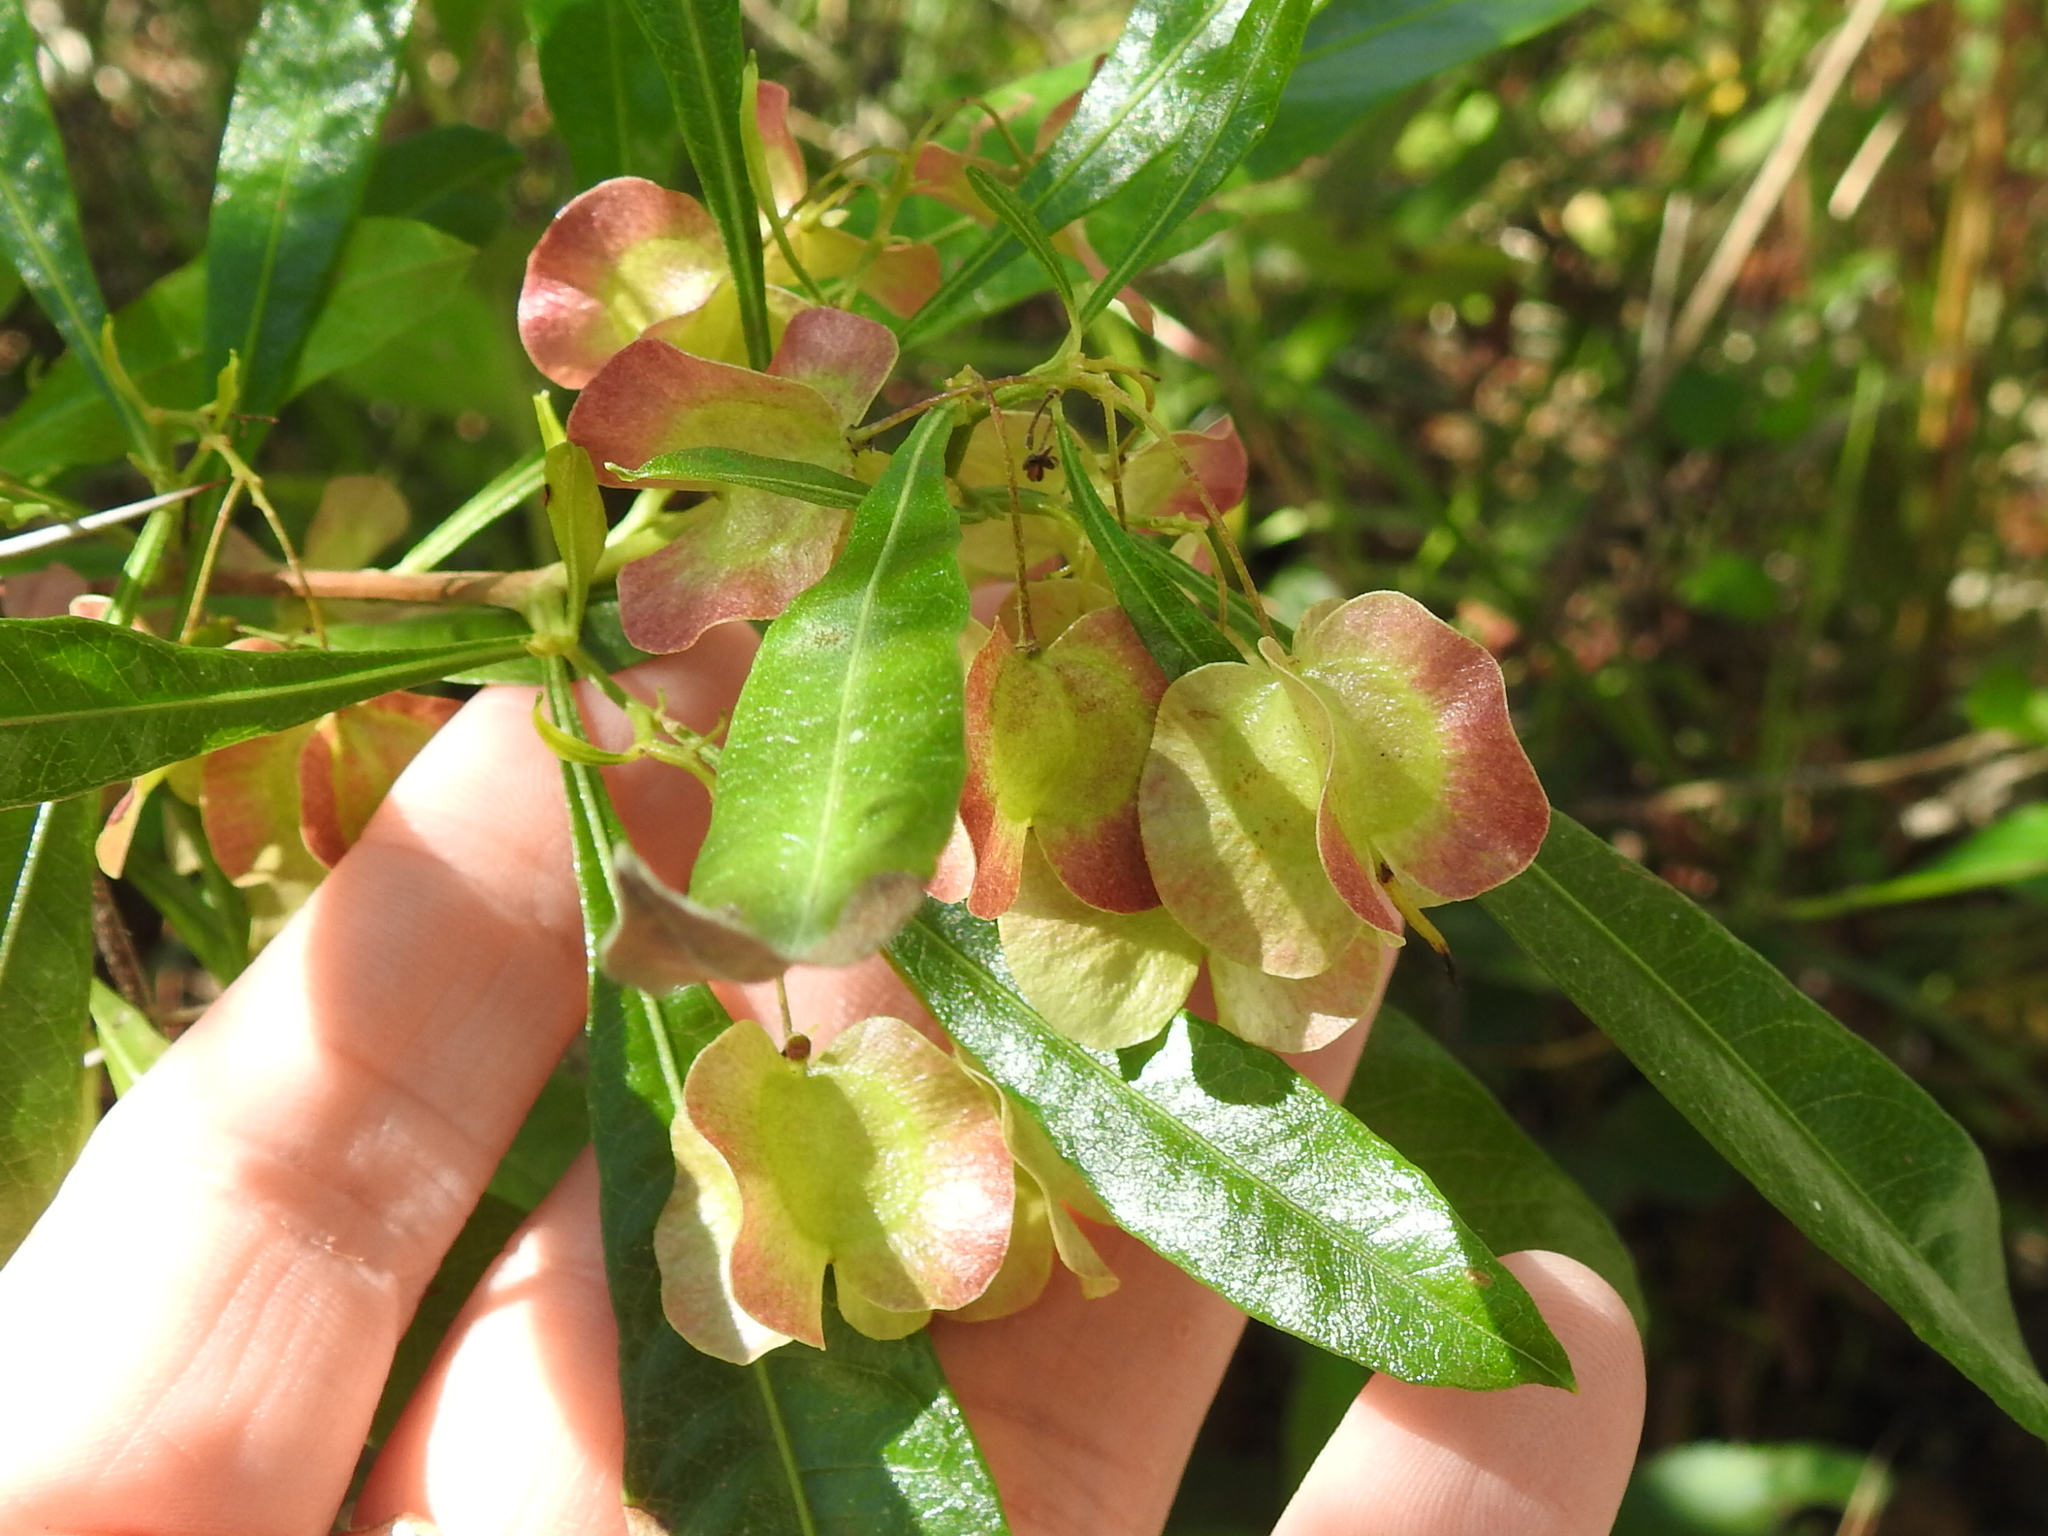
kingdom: Plantae
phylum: Tracheophyta
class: Magnoliopsida
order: Sapindales
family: Sapindaceae
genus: Dodonaea
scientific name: Dodonaea viscosa
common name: Hopbush
